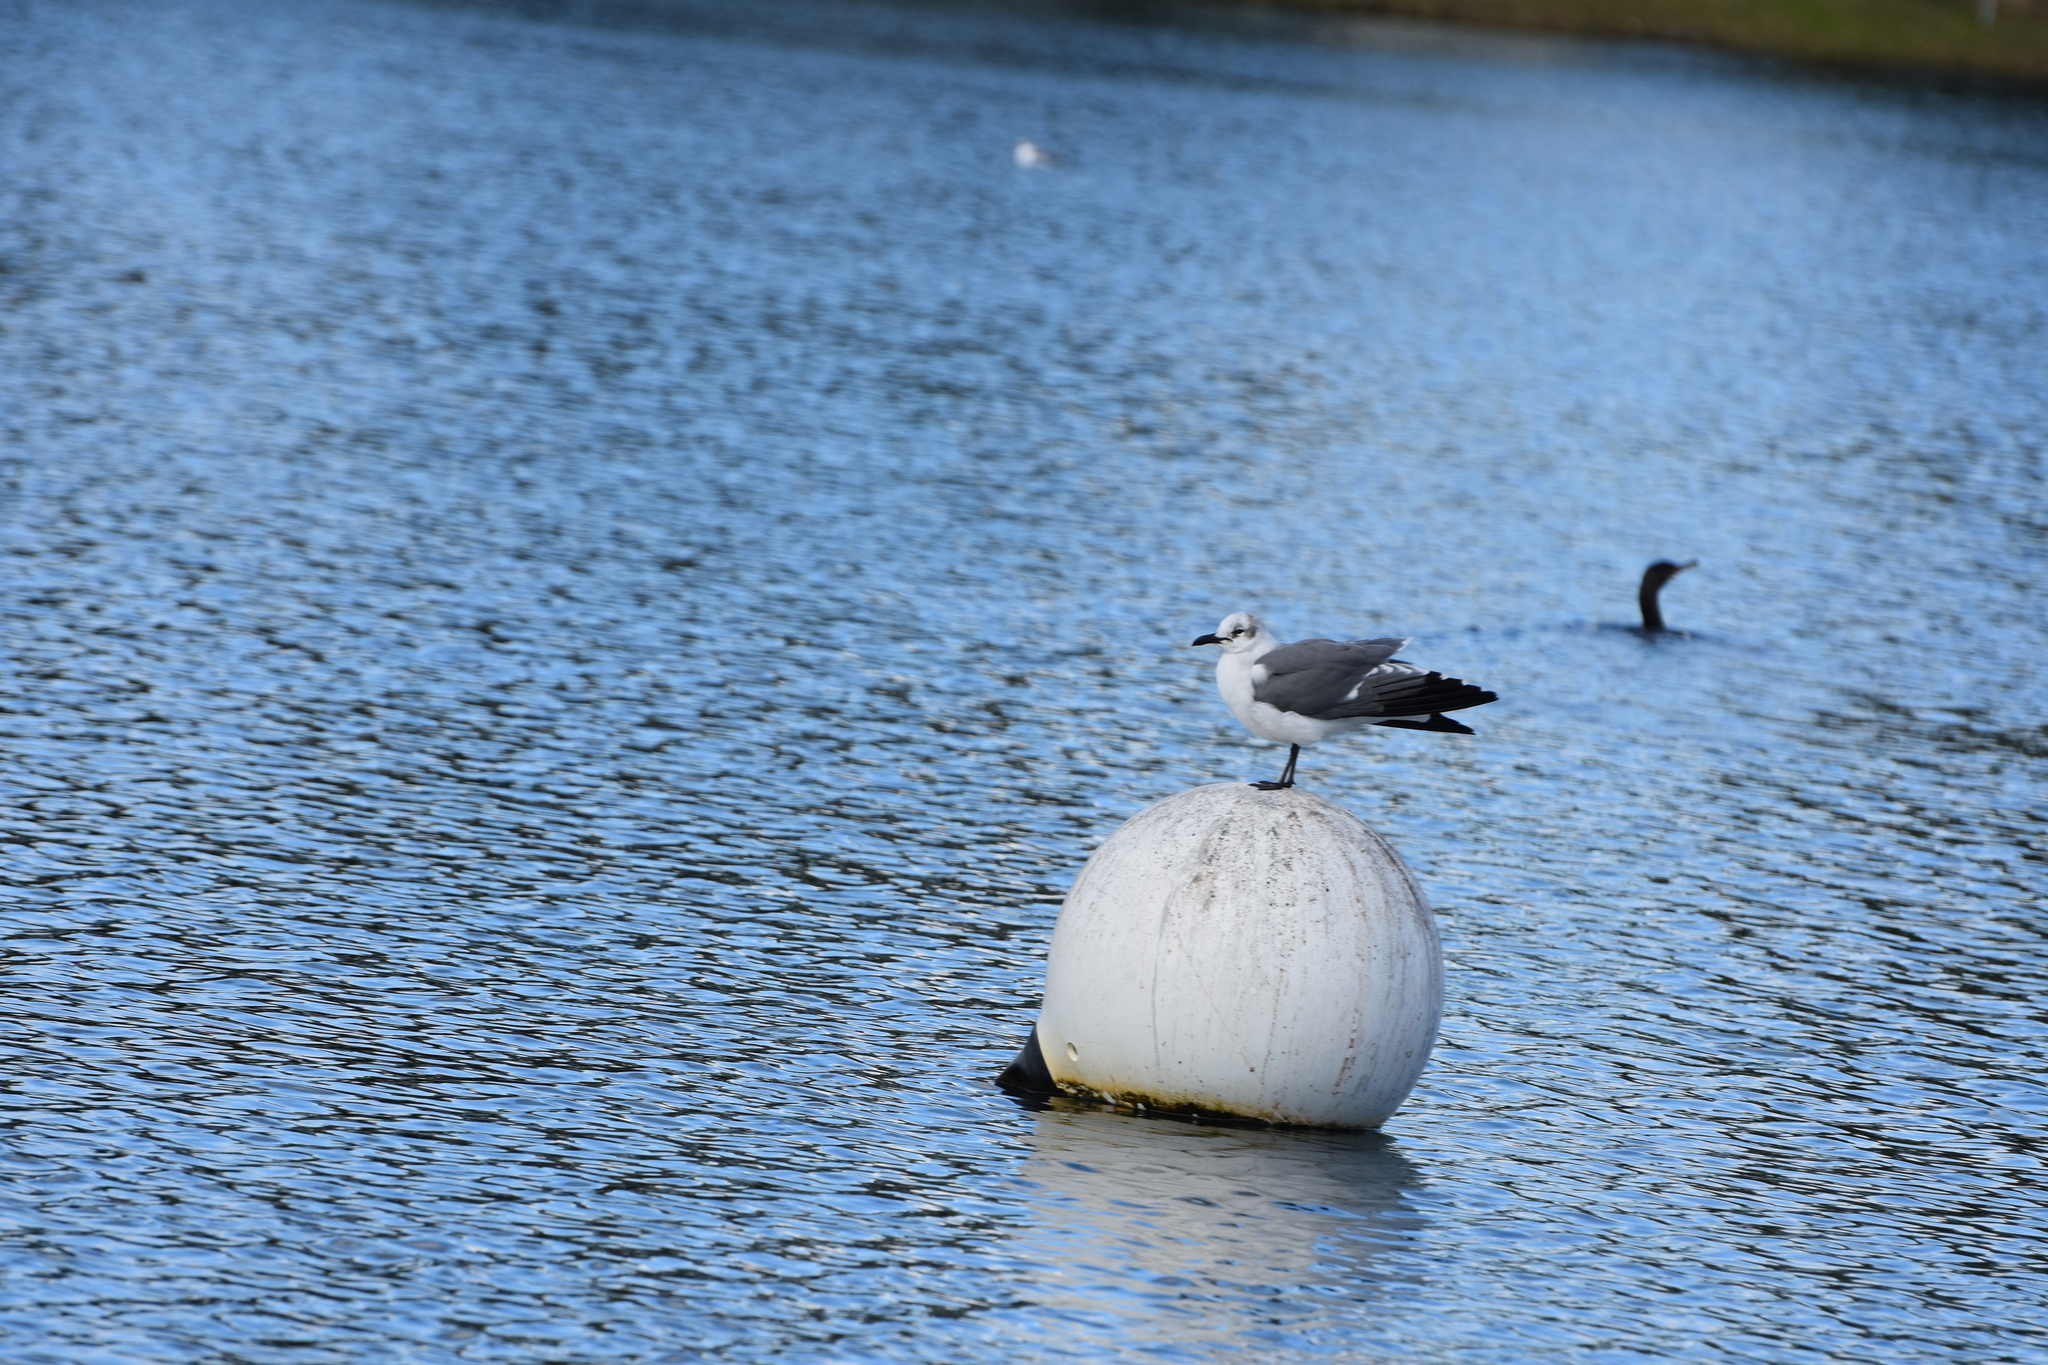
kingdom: Animalia
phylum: Chordata
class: Aves
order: Charadriiformes
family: Laridae
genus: Leucophaeus
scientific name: Leucophaeus atricilla
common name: Laughing gull
